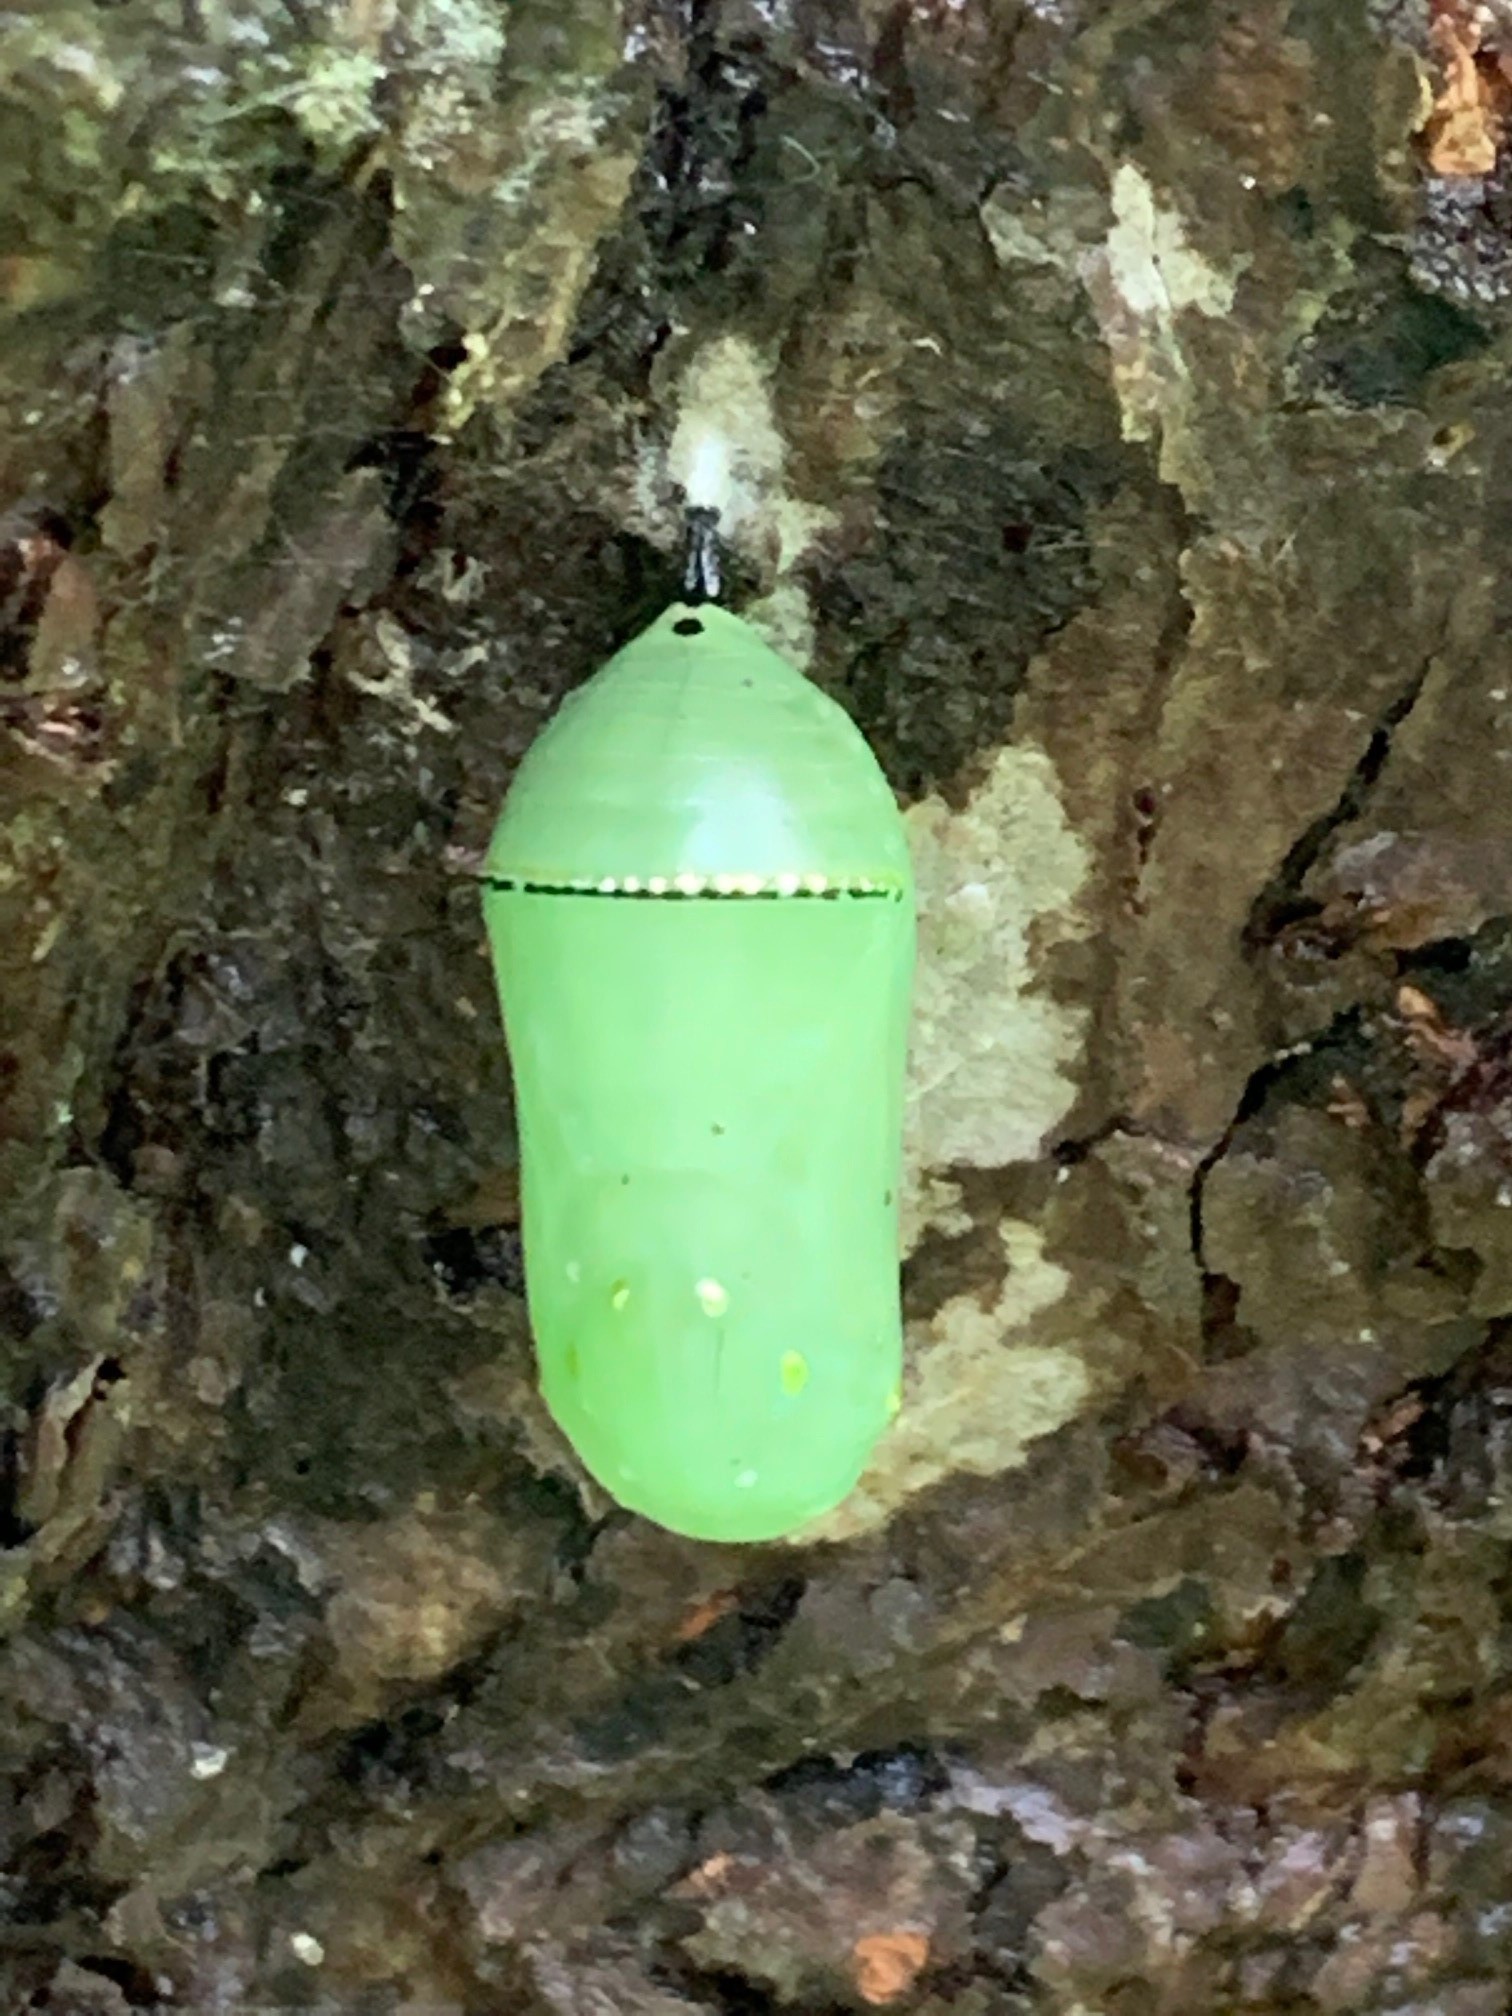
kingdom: Animalia
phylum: Arthropoda
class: Insecta
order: Lepidoptera
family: Nymphalidae
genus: Danaus
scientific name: Danaus plexippus
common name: Monarch
